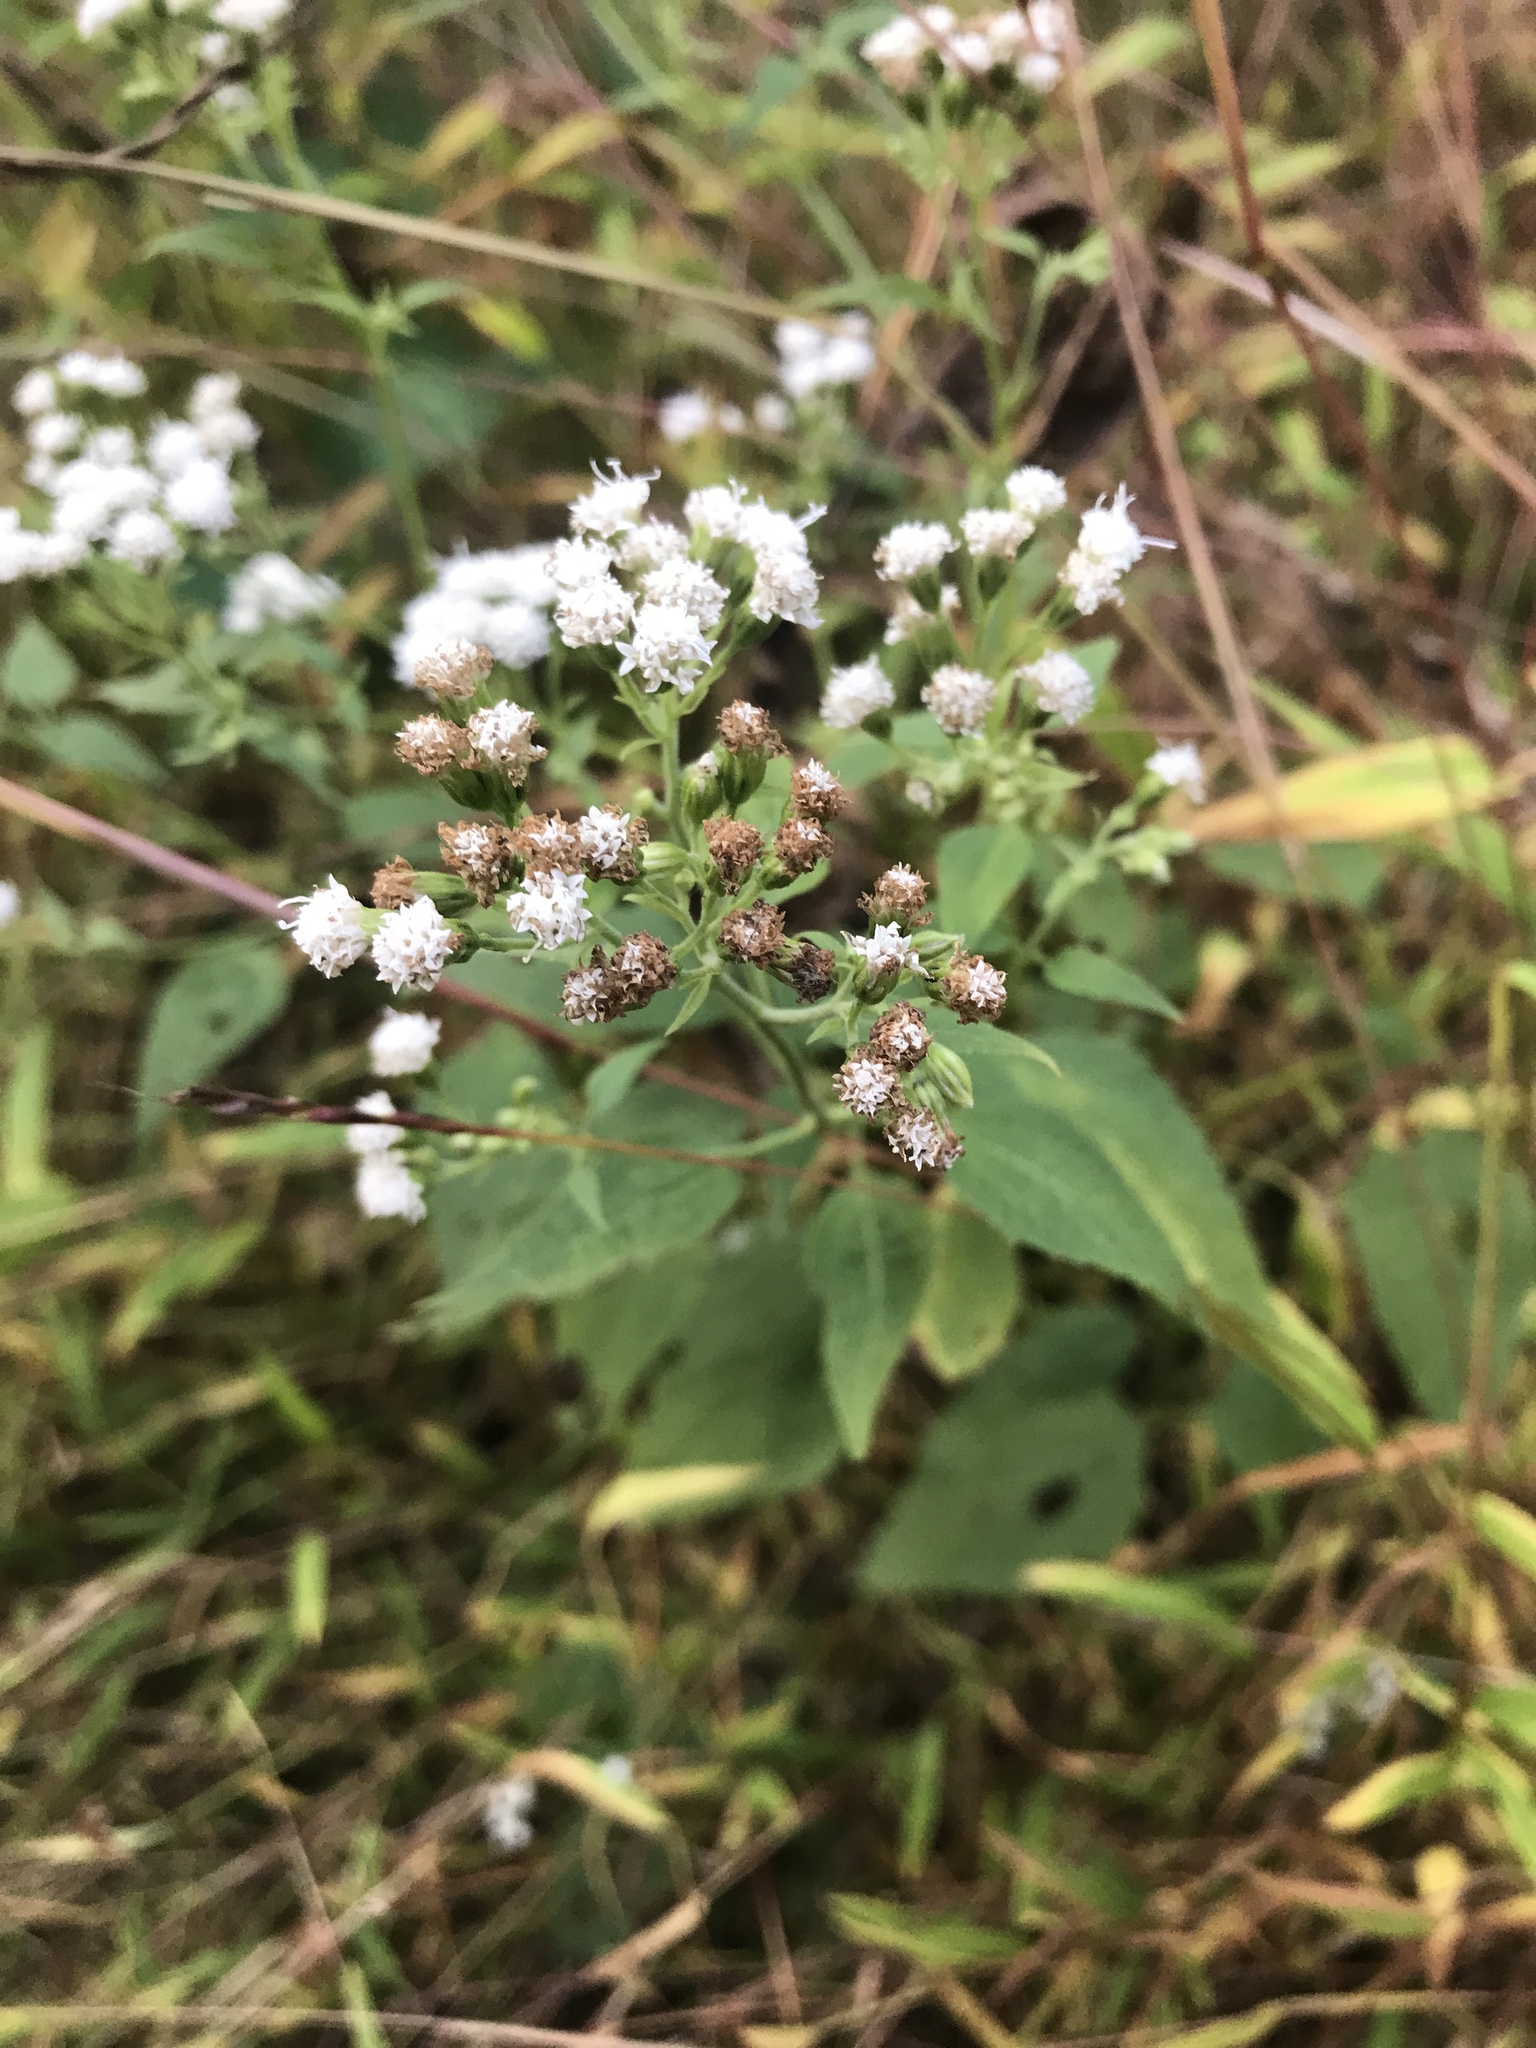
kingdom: Plantae
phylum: Tracheophyta
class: Magnoliopsida
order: Asterales
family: Asteraceae
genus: Ageratina
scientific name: Ageratina altissima
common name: White snakeroot
